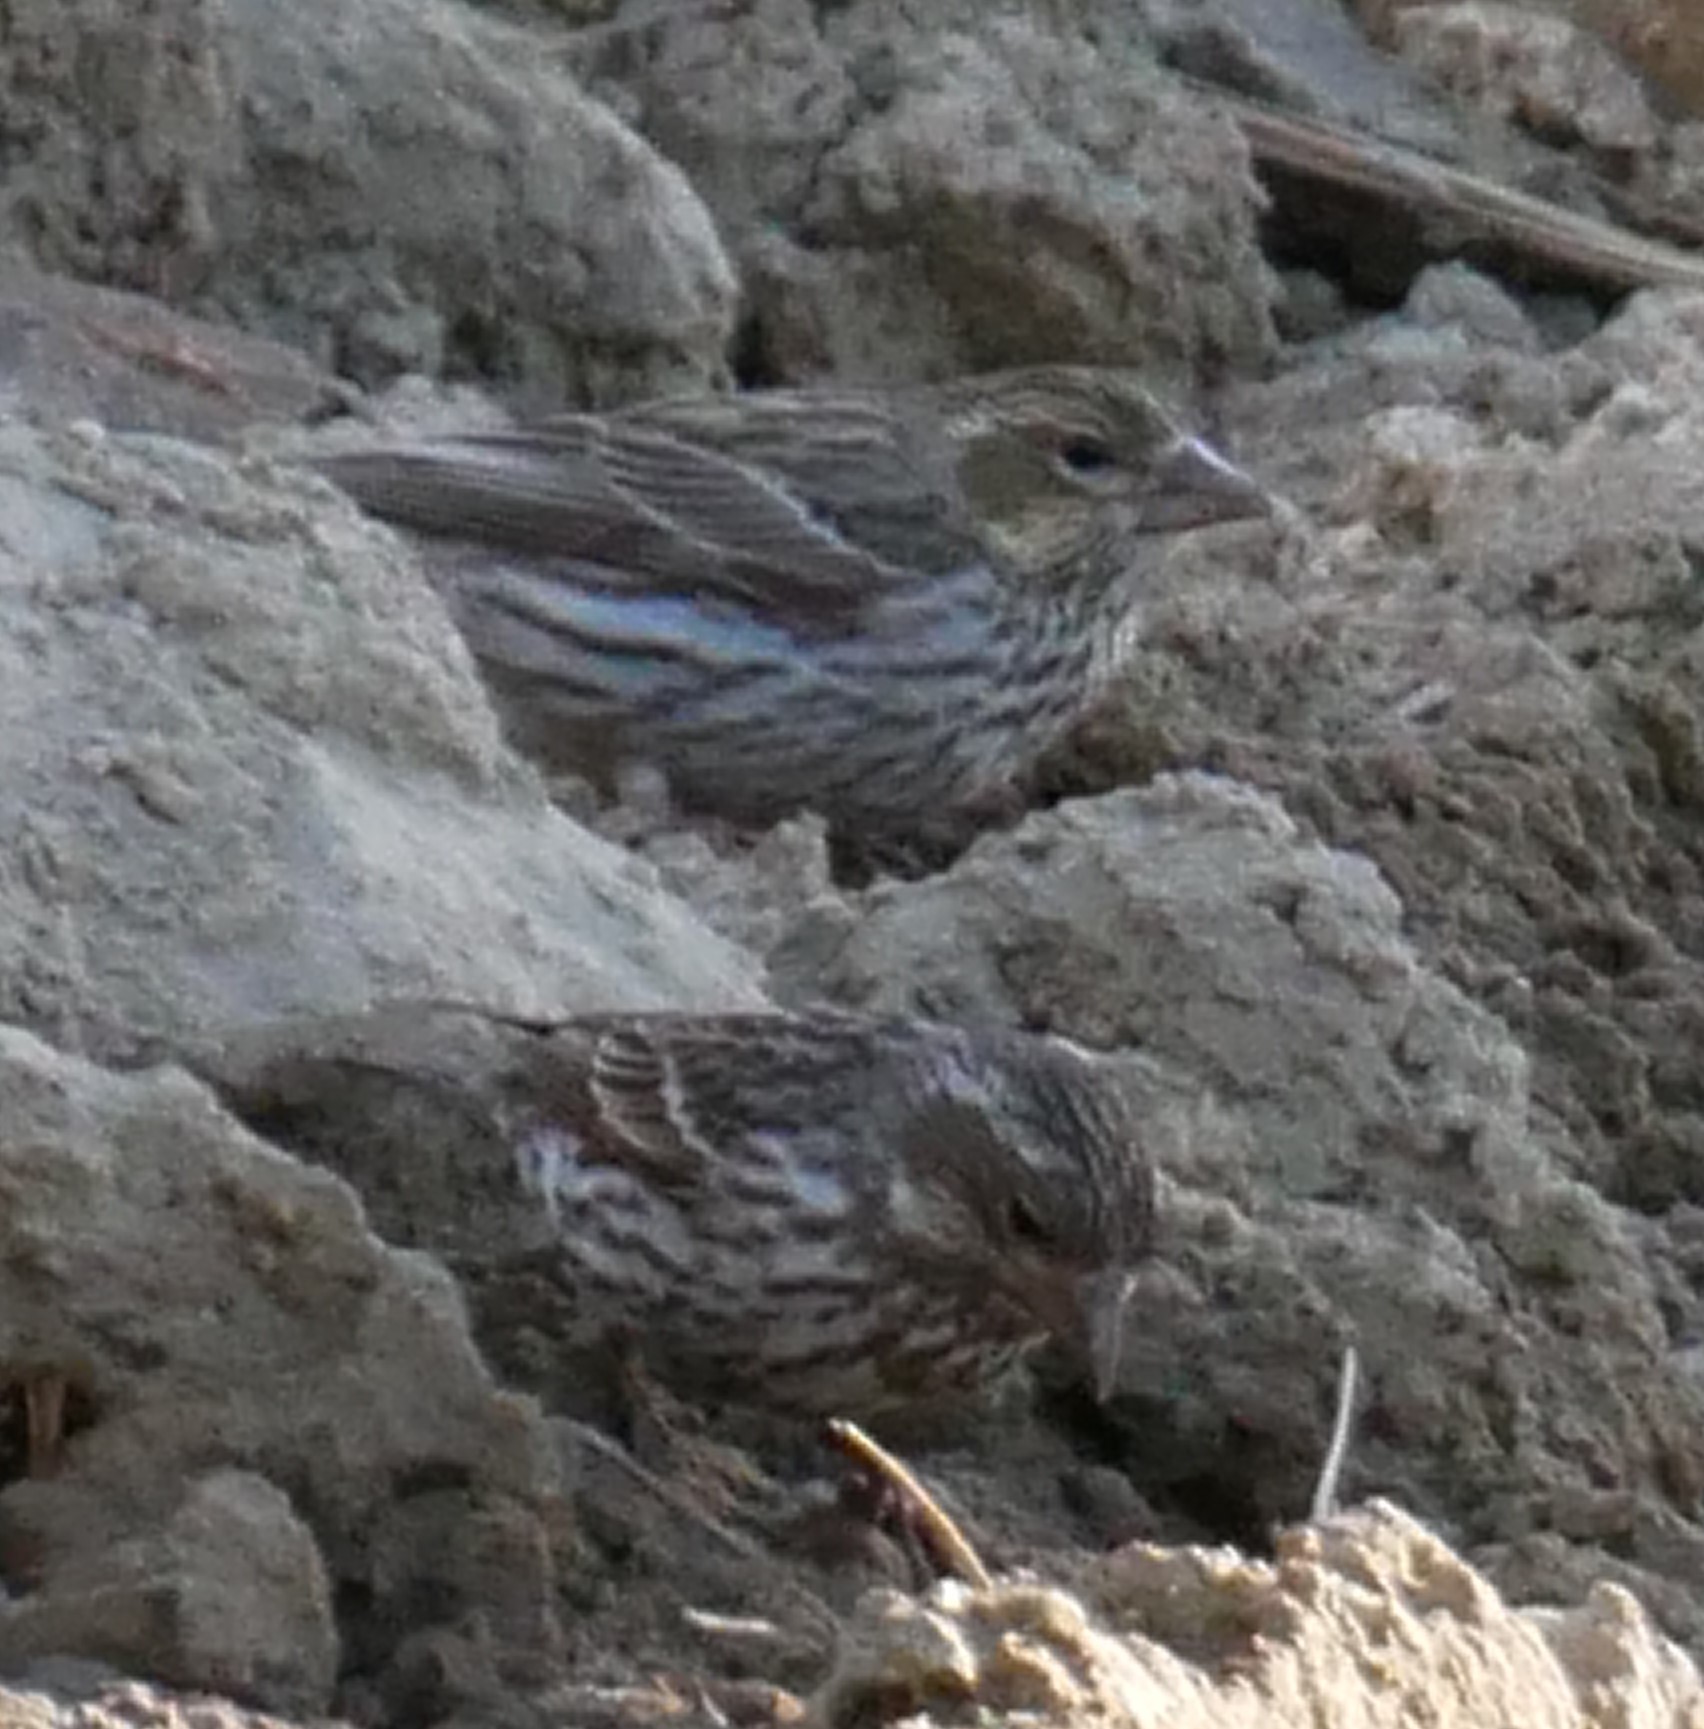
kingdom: Animalia
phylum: Chordata
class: Aves
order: Passeriformes
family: Fringillidae
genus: Loxia
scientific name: Loxia curvirostra
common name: Red crossbill
